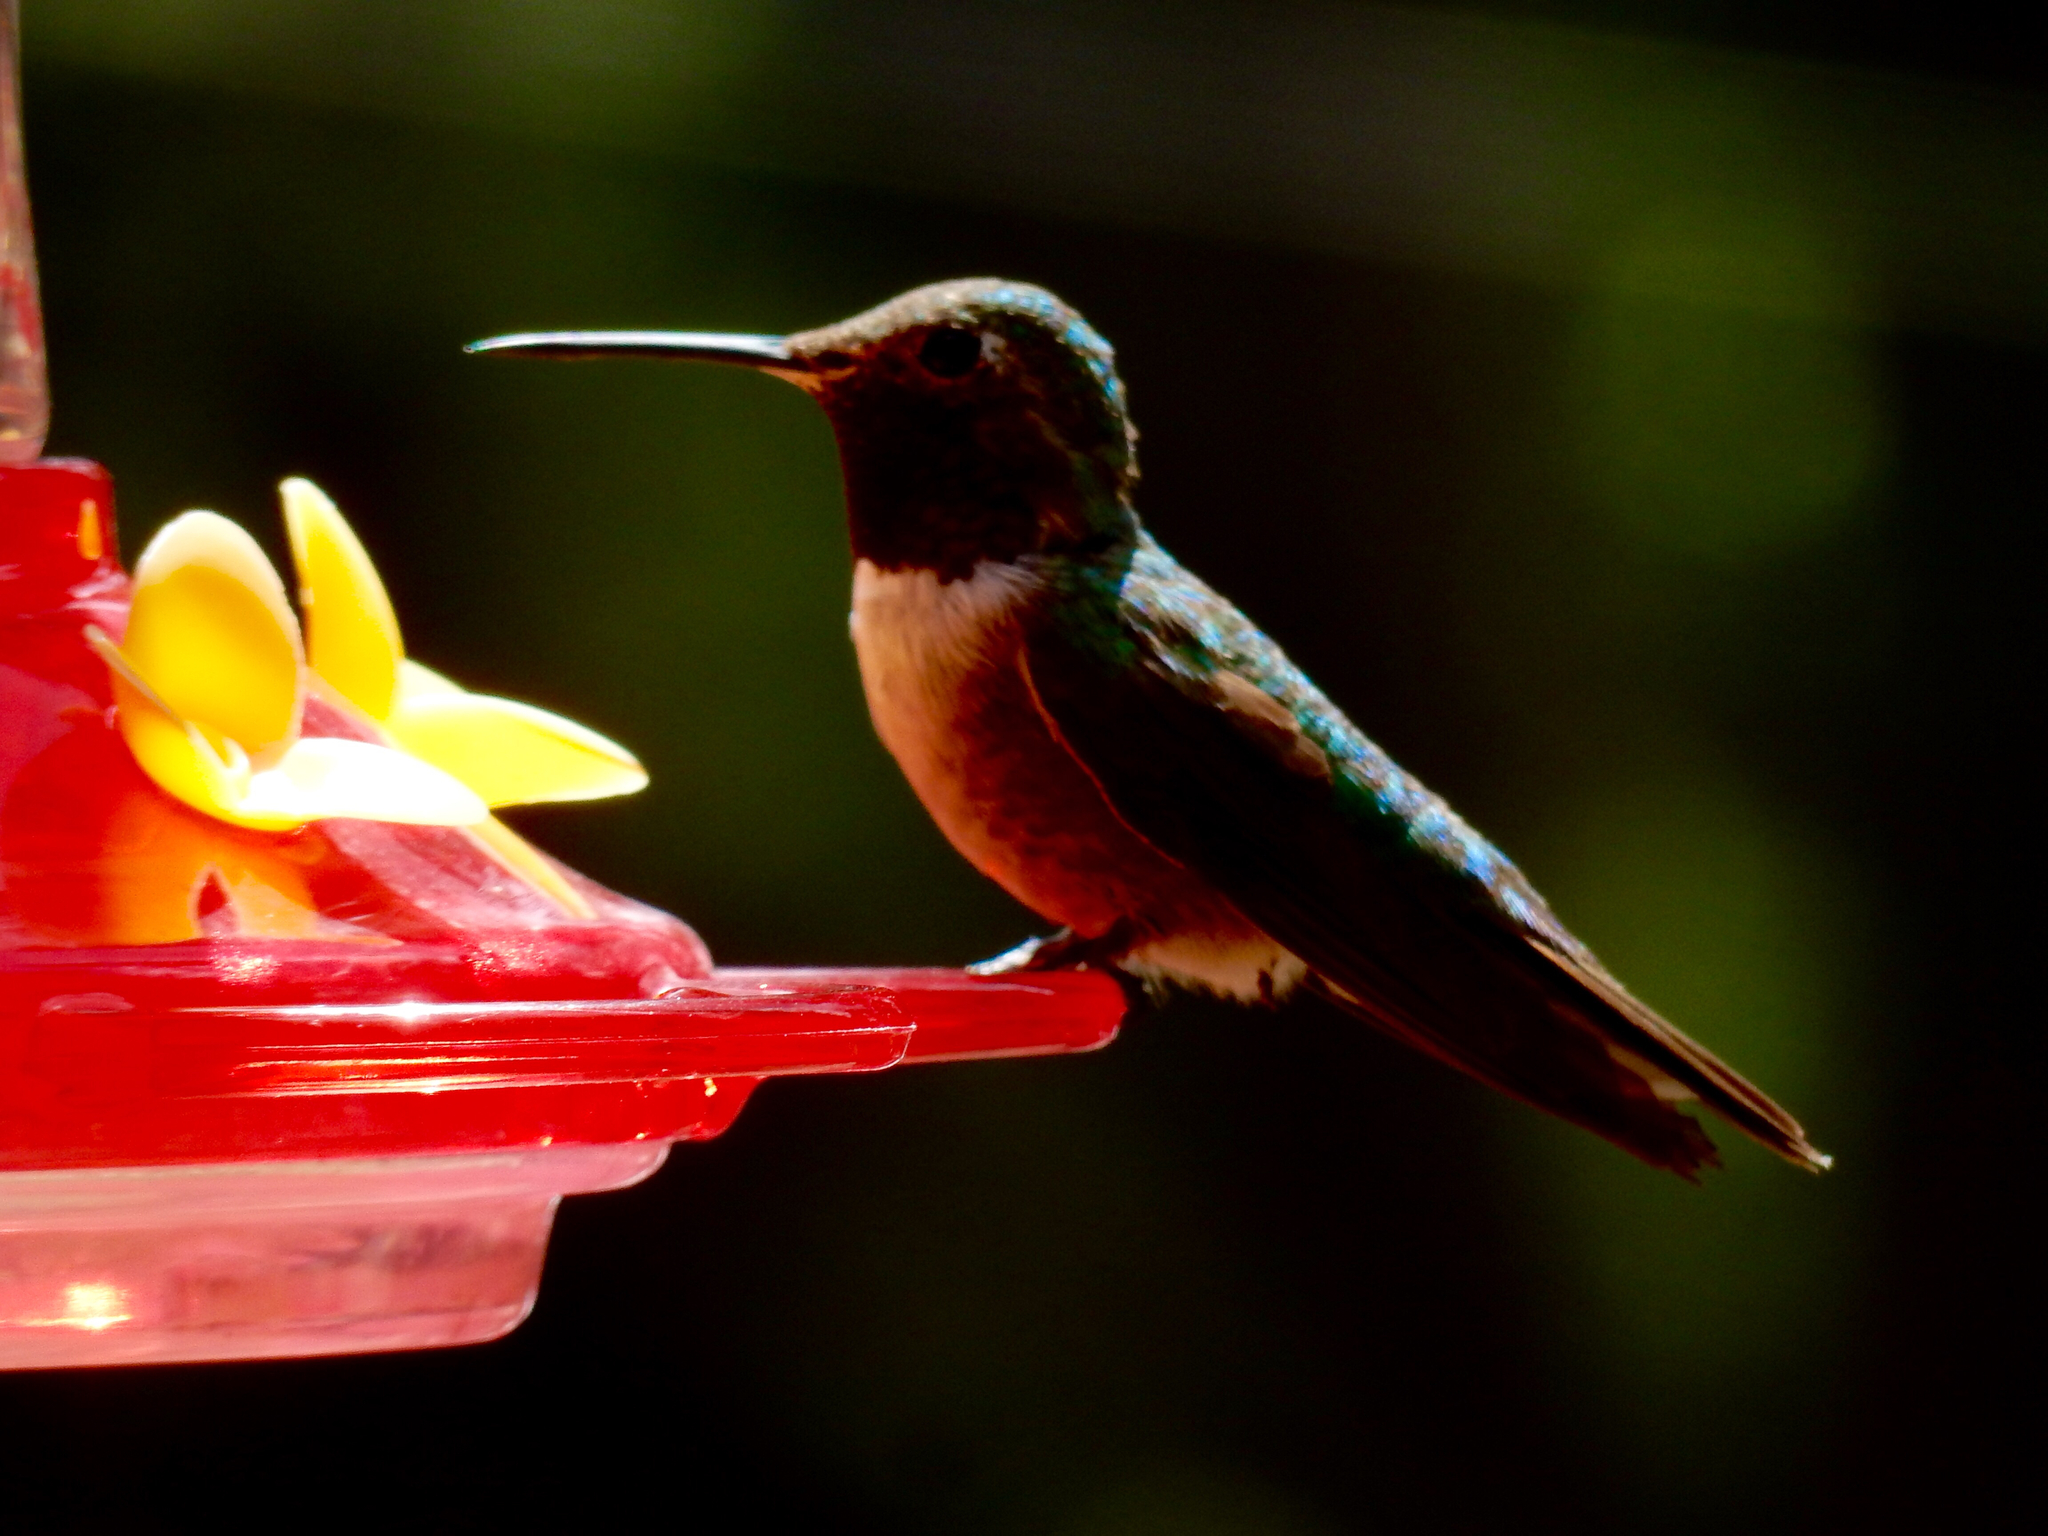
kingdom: Animalia
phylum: Chordata
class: Aves
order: Apodiformes
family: Trochilidae
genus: Selasphorus
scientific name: Selasphorus platycercus
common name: Broad-tailed hummingbird
